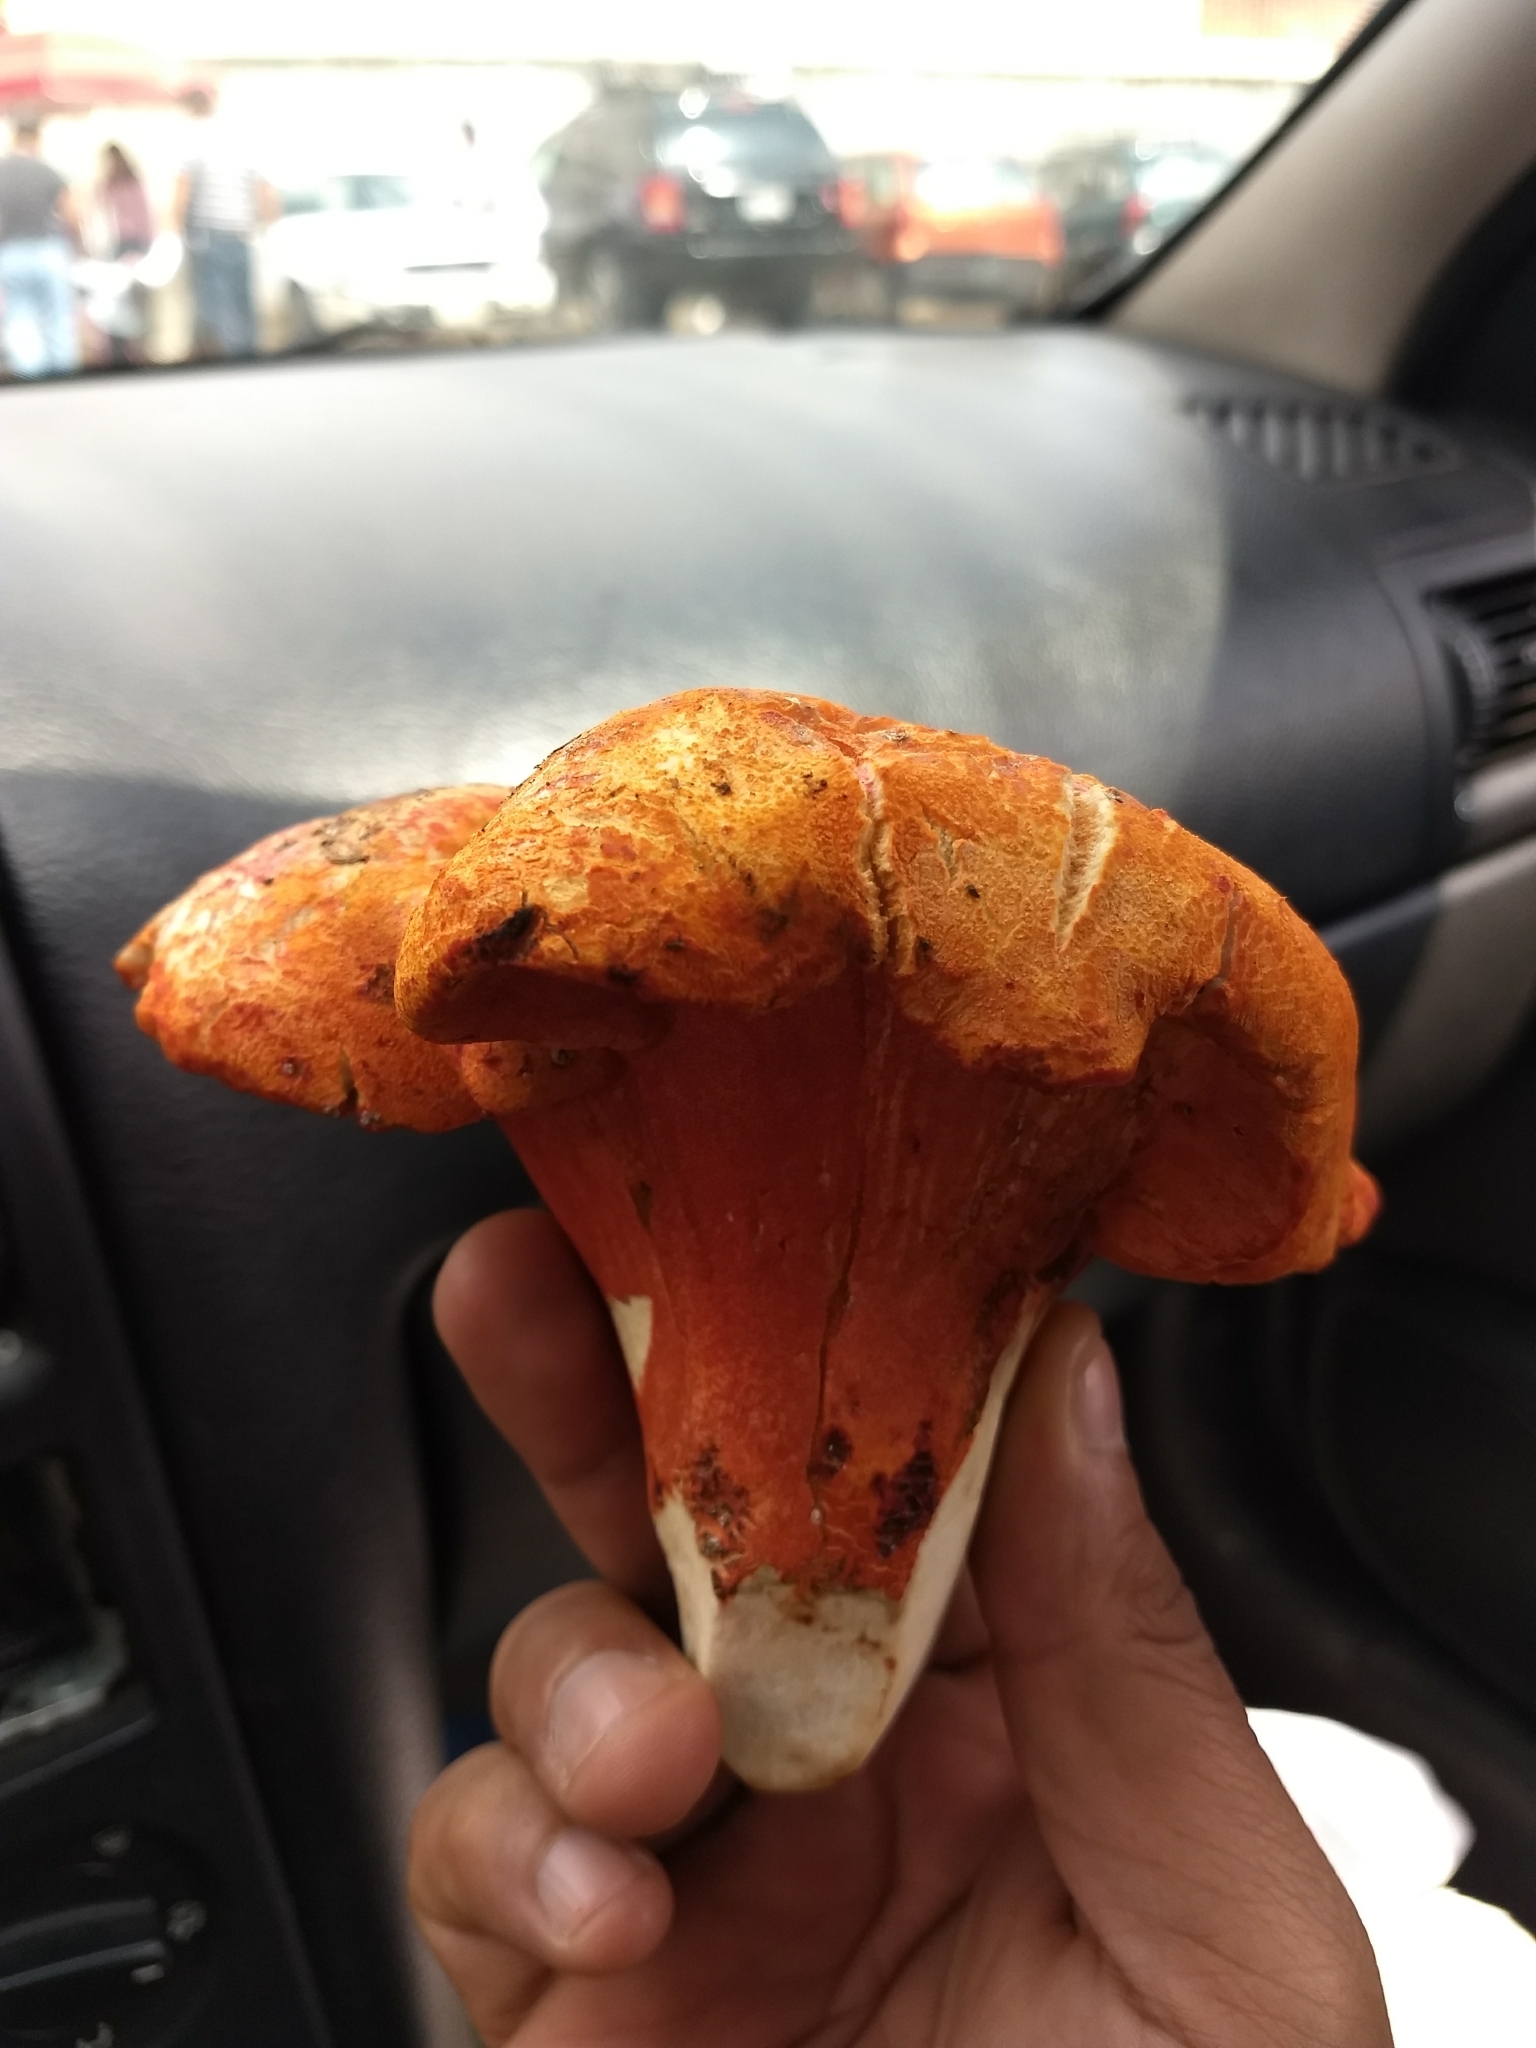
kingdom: Fungi
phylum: Ascomycota
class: Sordariomycetes
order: Hypocreales
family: Hypocreaceae
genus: Hypomyces
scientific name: Hypomyces lactifluorum
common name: Lobster mushroom
